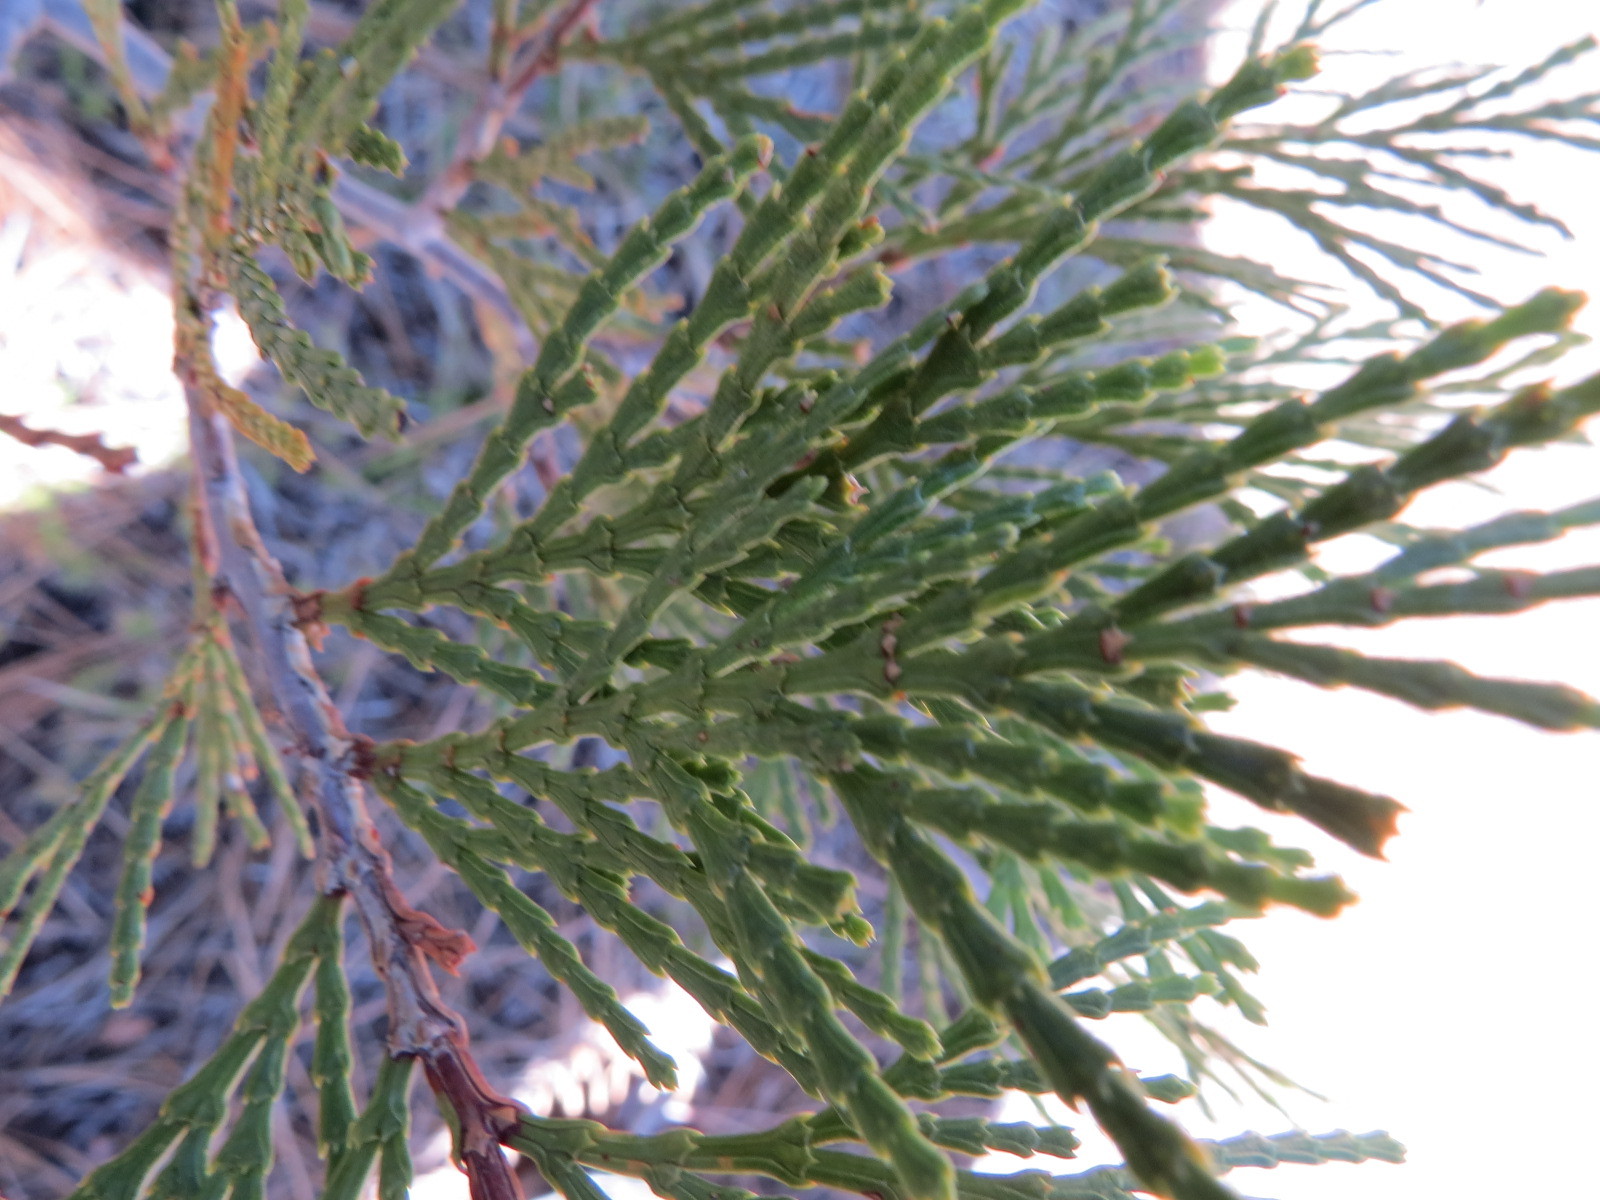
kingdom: Plantae
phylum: Tracheophyta
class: Pinopsida
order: Pinales
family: Cupressaceae
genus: Calocedrus
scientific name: Calocedrus decurrens
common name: Californian incense-cedar
